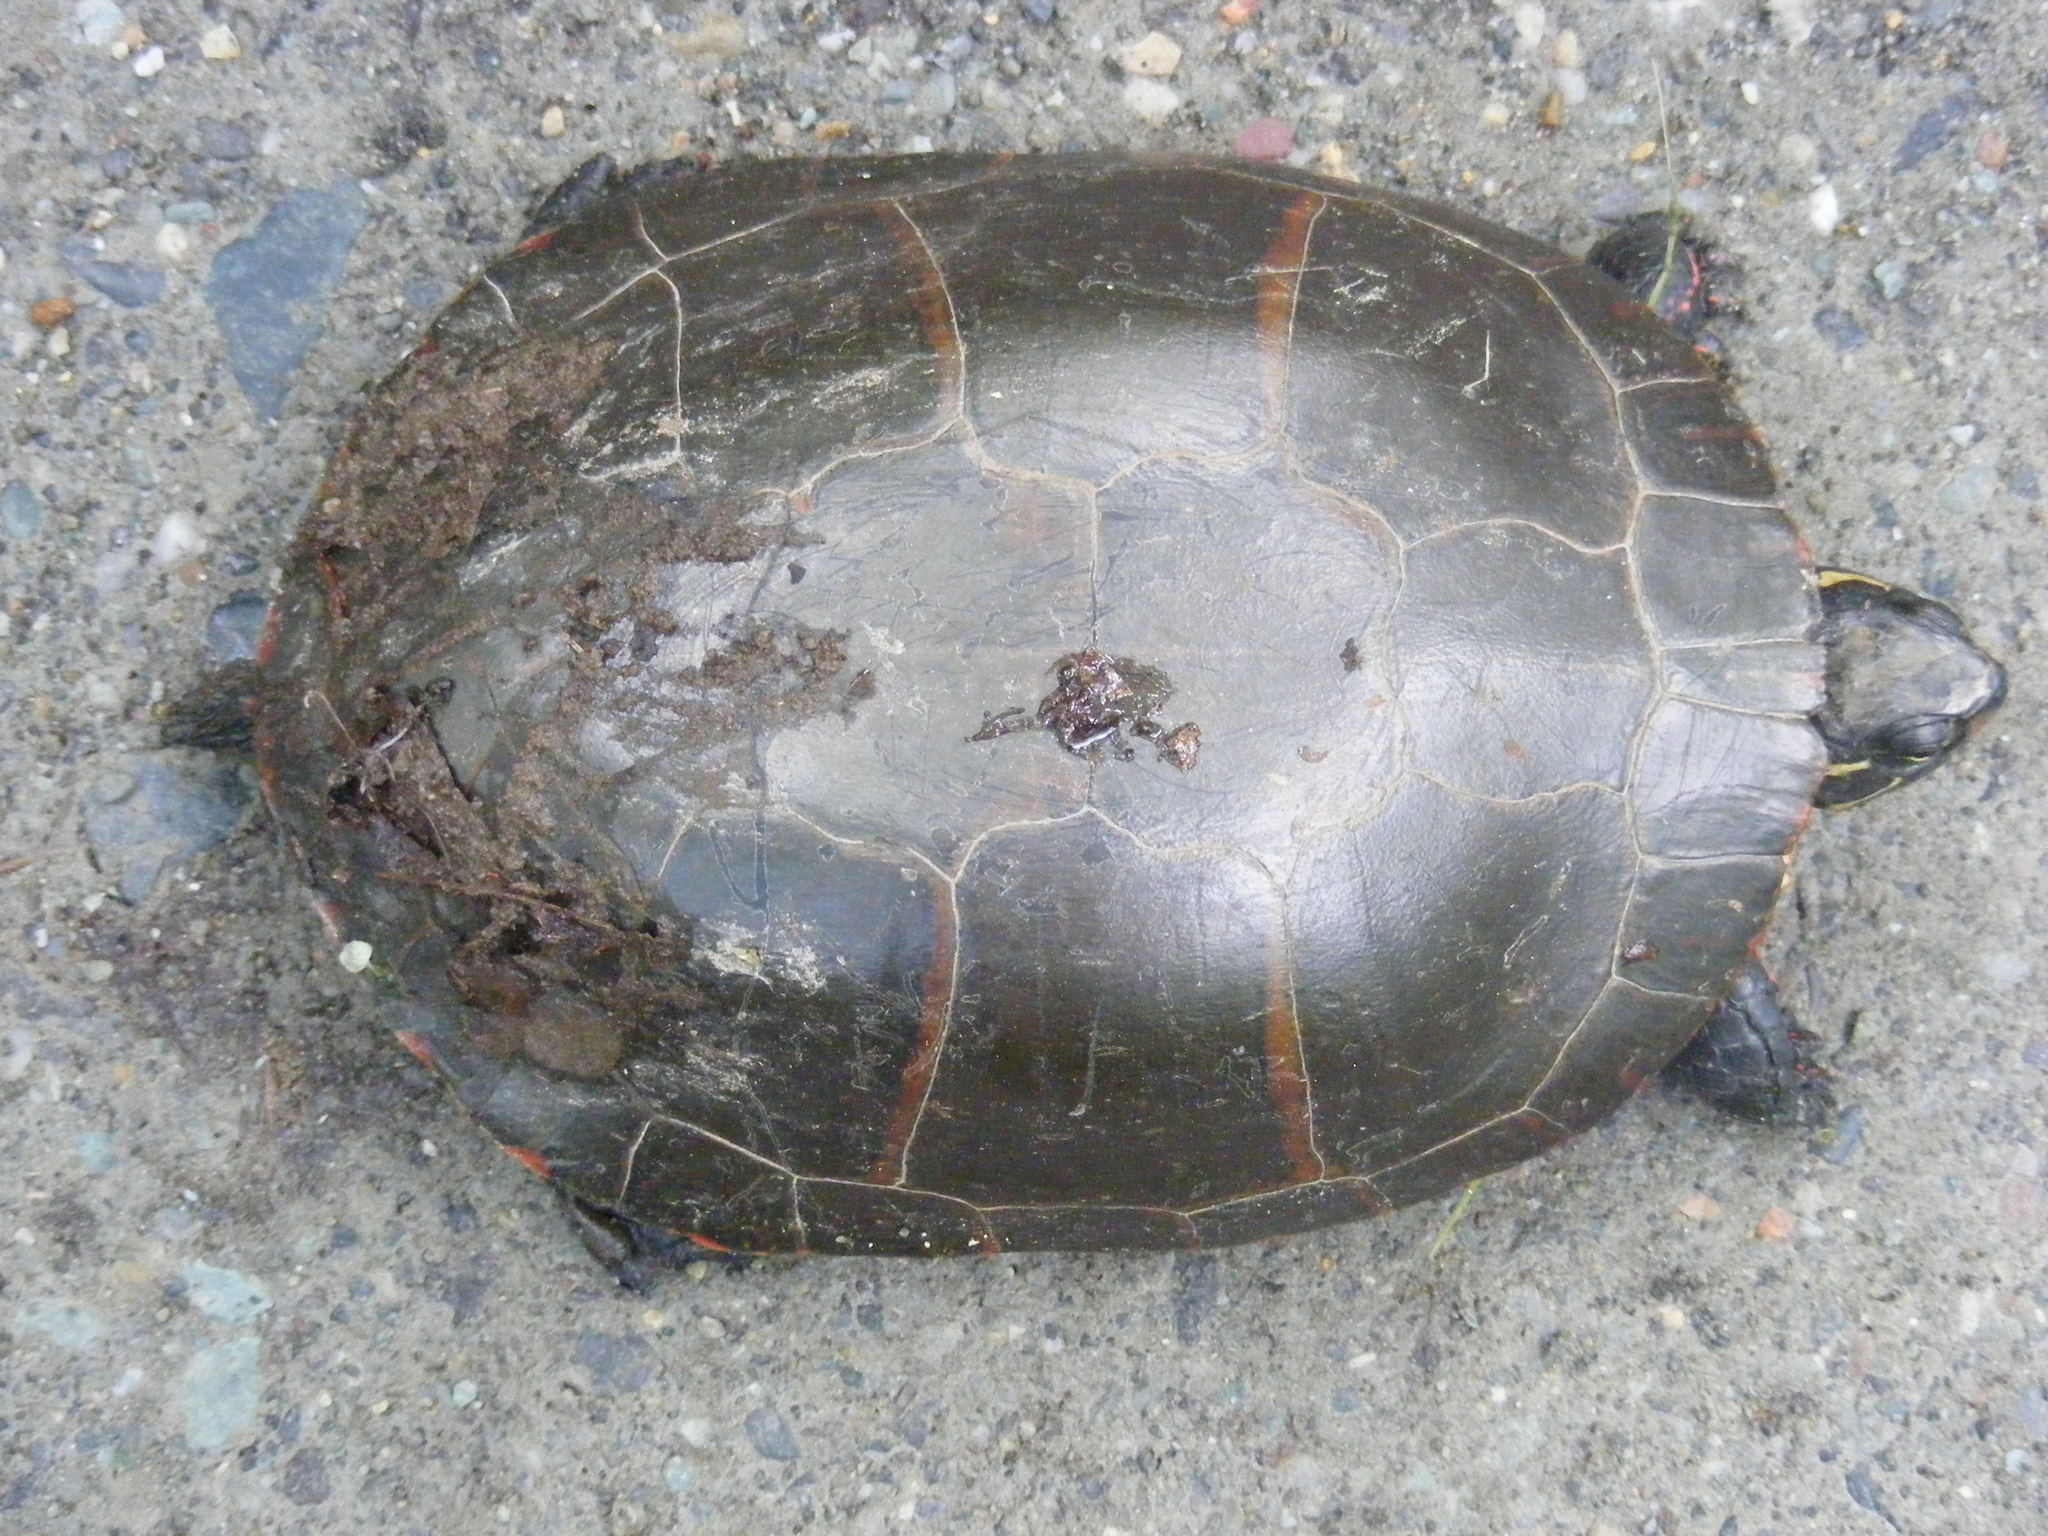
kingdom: Animalia
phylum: Chordata
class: Testudines
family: Emydidae
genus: Chrysemys
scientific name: Chrysemys picta
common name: Painted turtle
